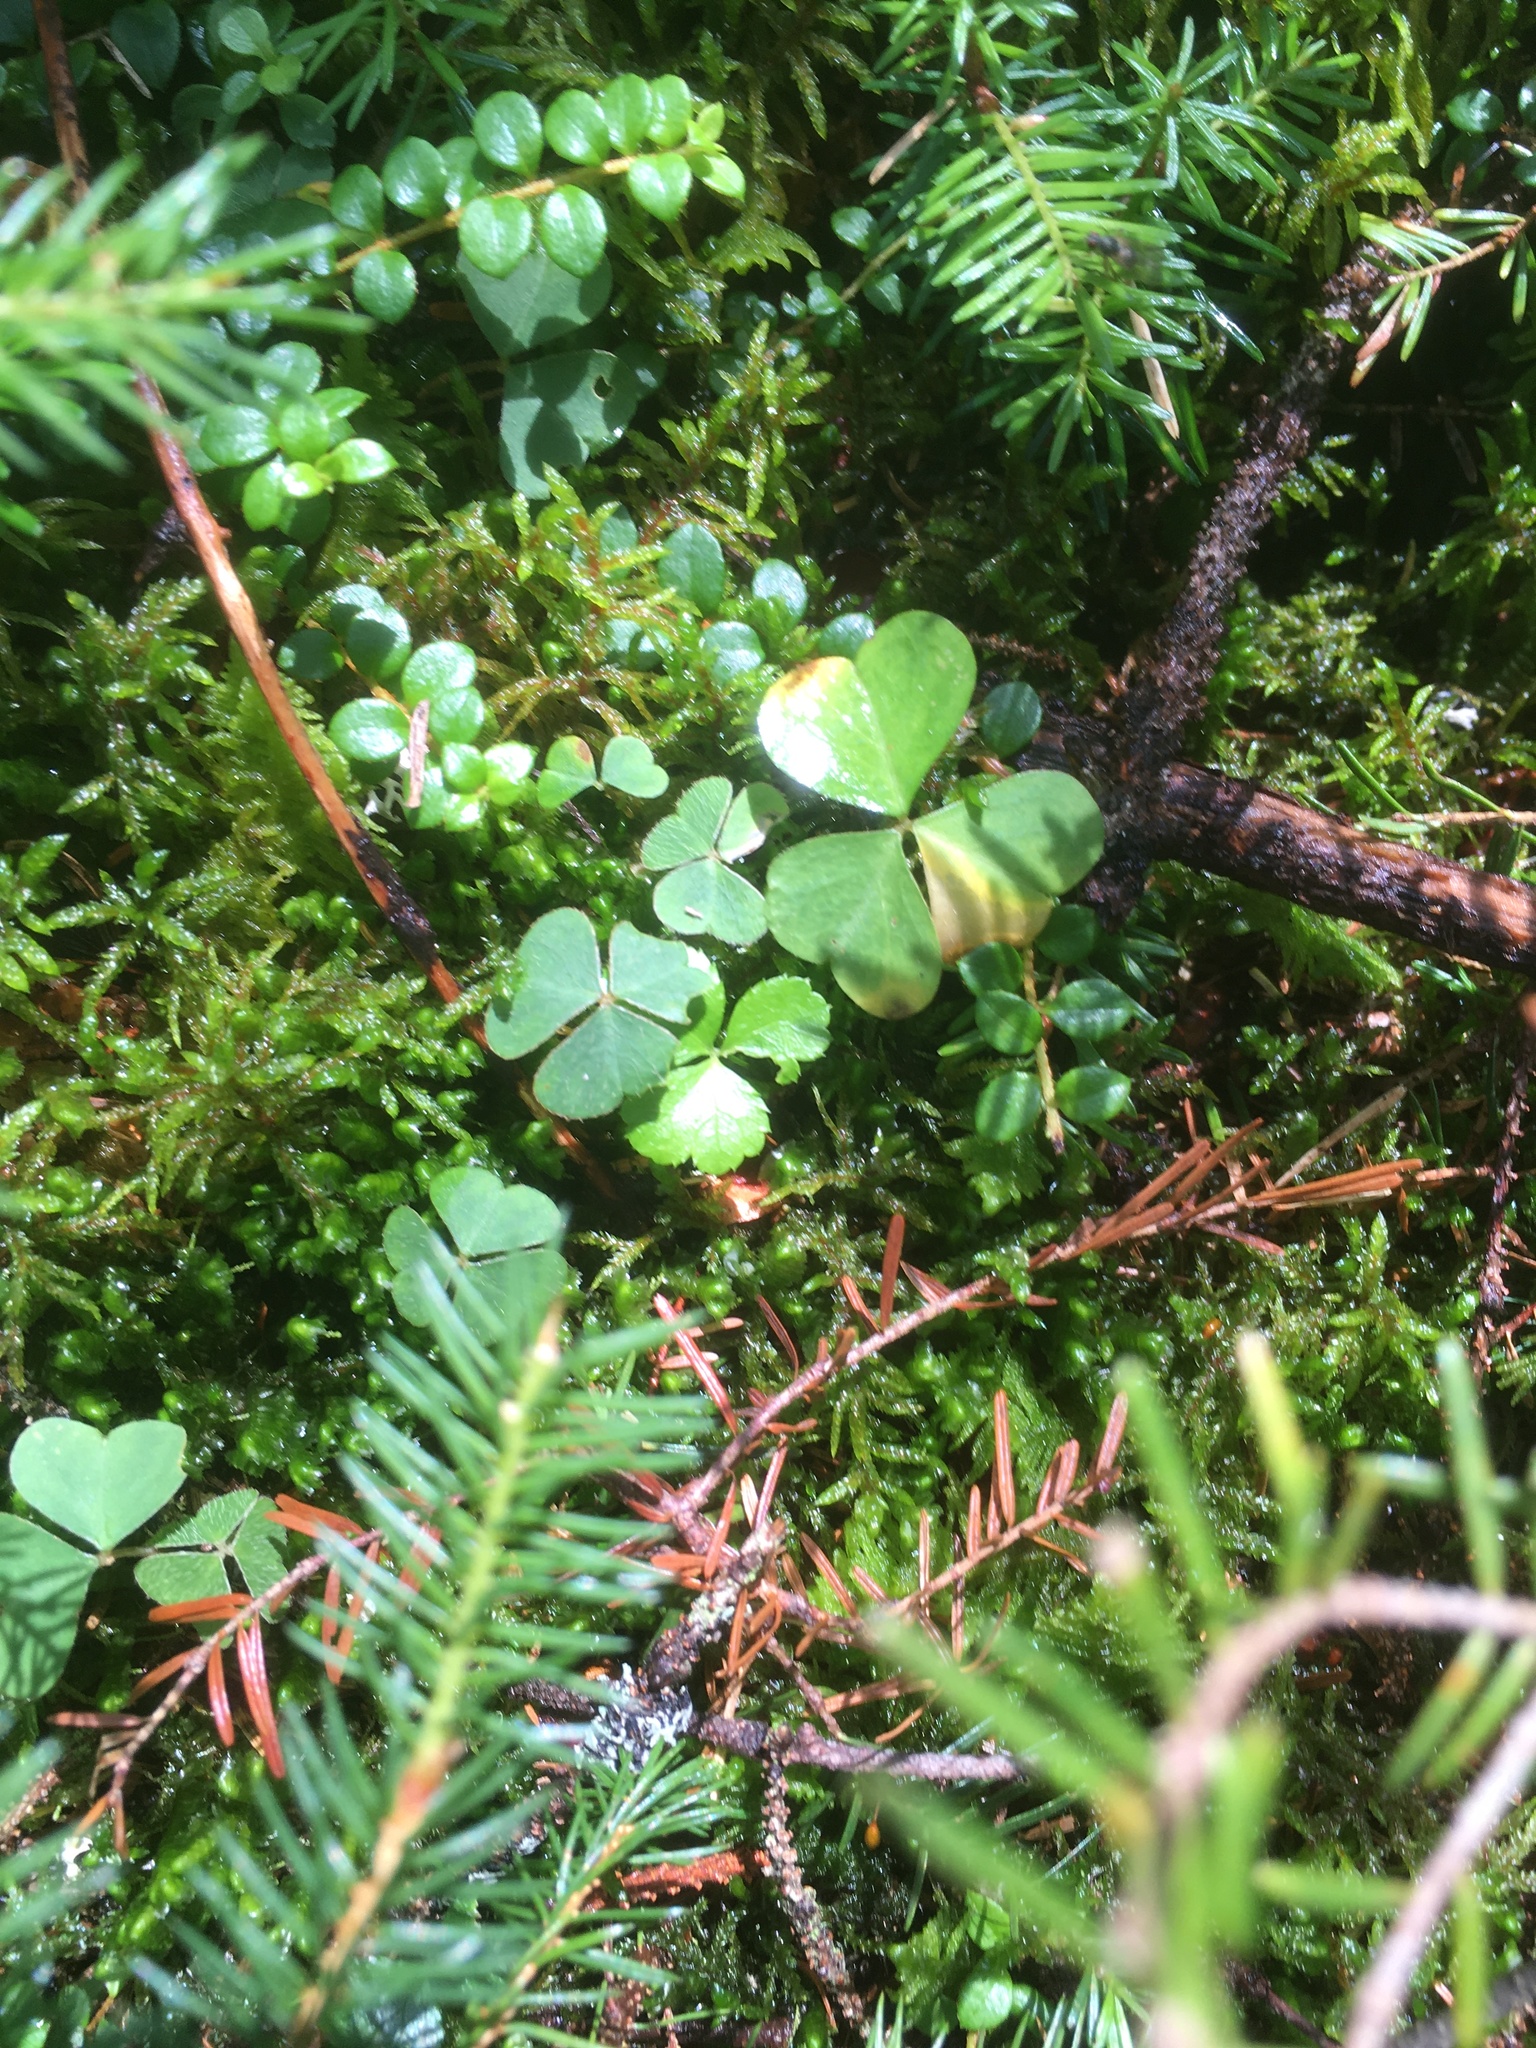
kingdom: Plantae
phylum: Tracheophyta
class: Magnoliopsida
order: Oxalidales
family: Oxalidaceae
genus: Oxalis
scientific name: Oxalis montana
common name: American wood-sorrel
